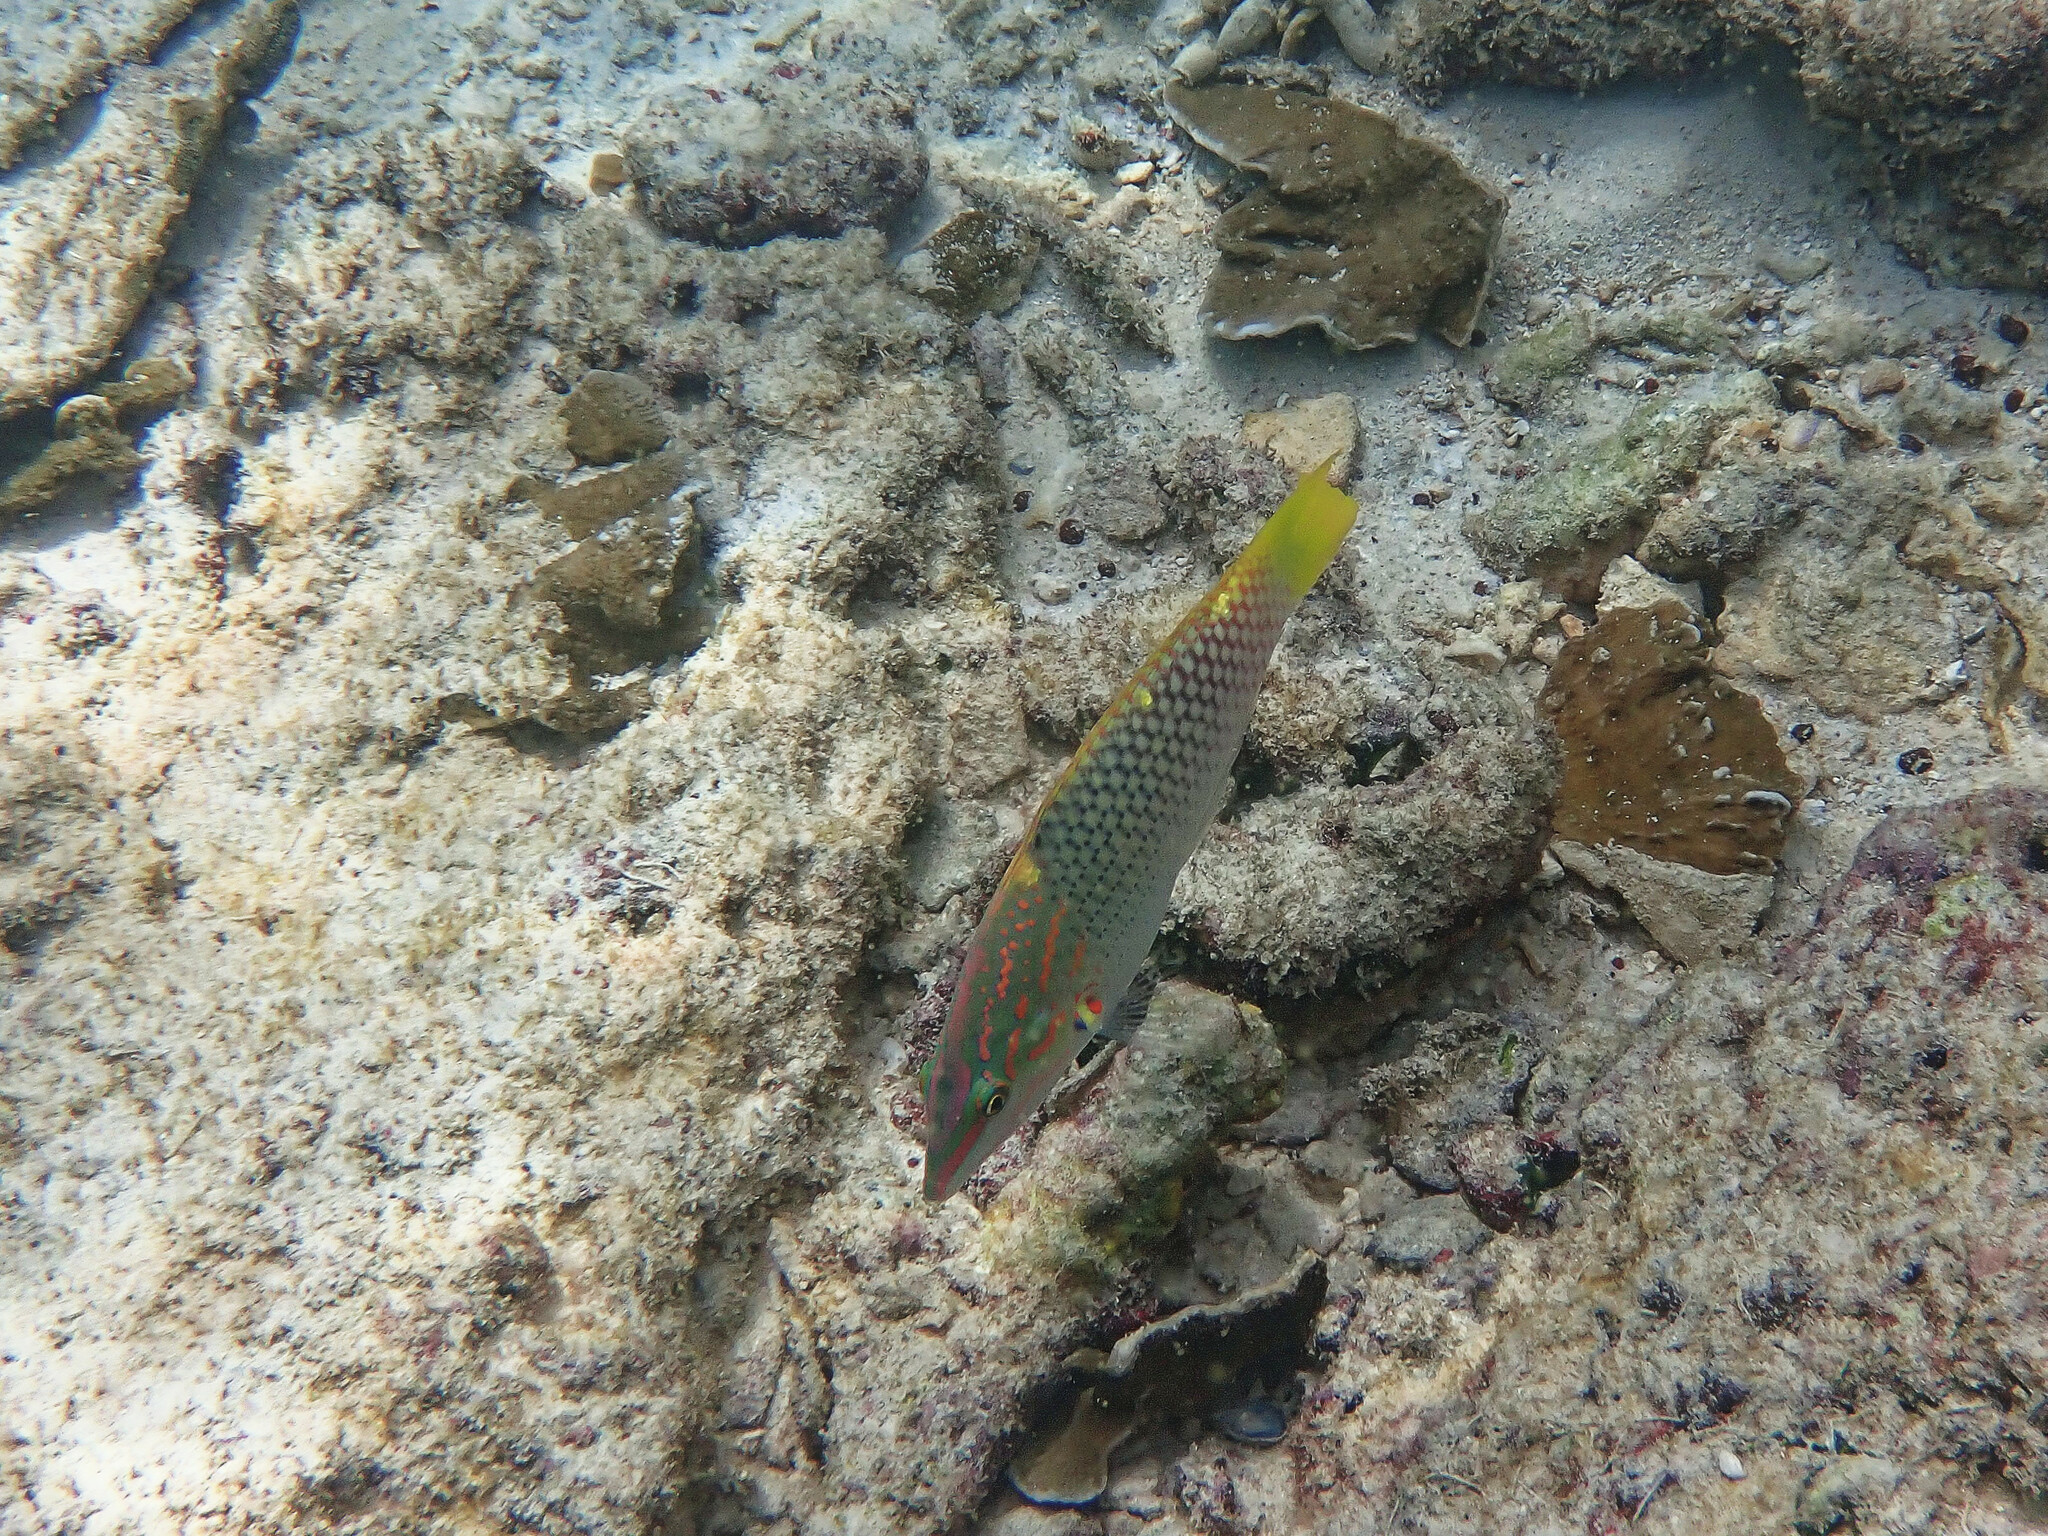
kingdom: Animalia
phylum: Chordata
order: Perciformes
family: Labridae
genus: Halichoeres
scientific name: Halichoeres hortulanus
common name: Checkerboard wrasse
